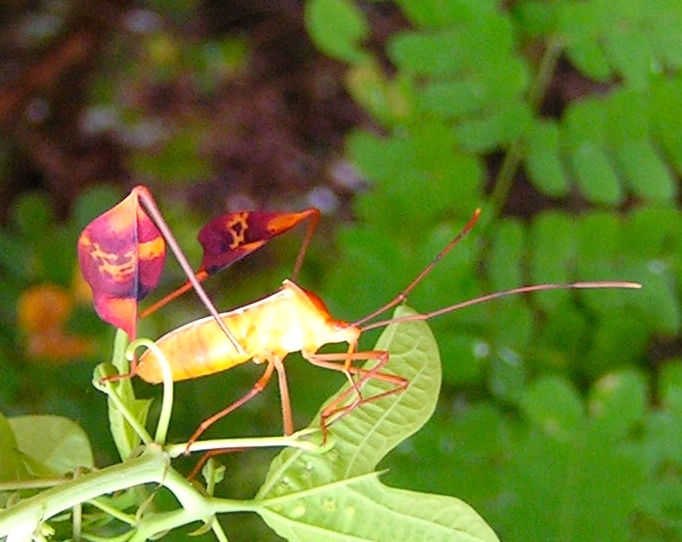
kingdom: Animalia
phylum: Arthropoda
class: Insecta
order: Hemiptera
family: Coreidae
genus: Bitta
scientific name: Bitta
